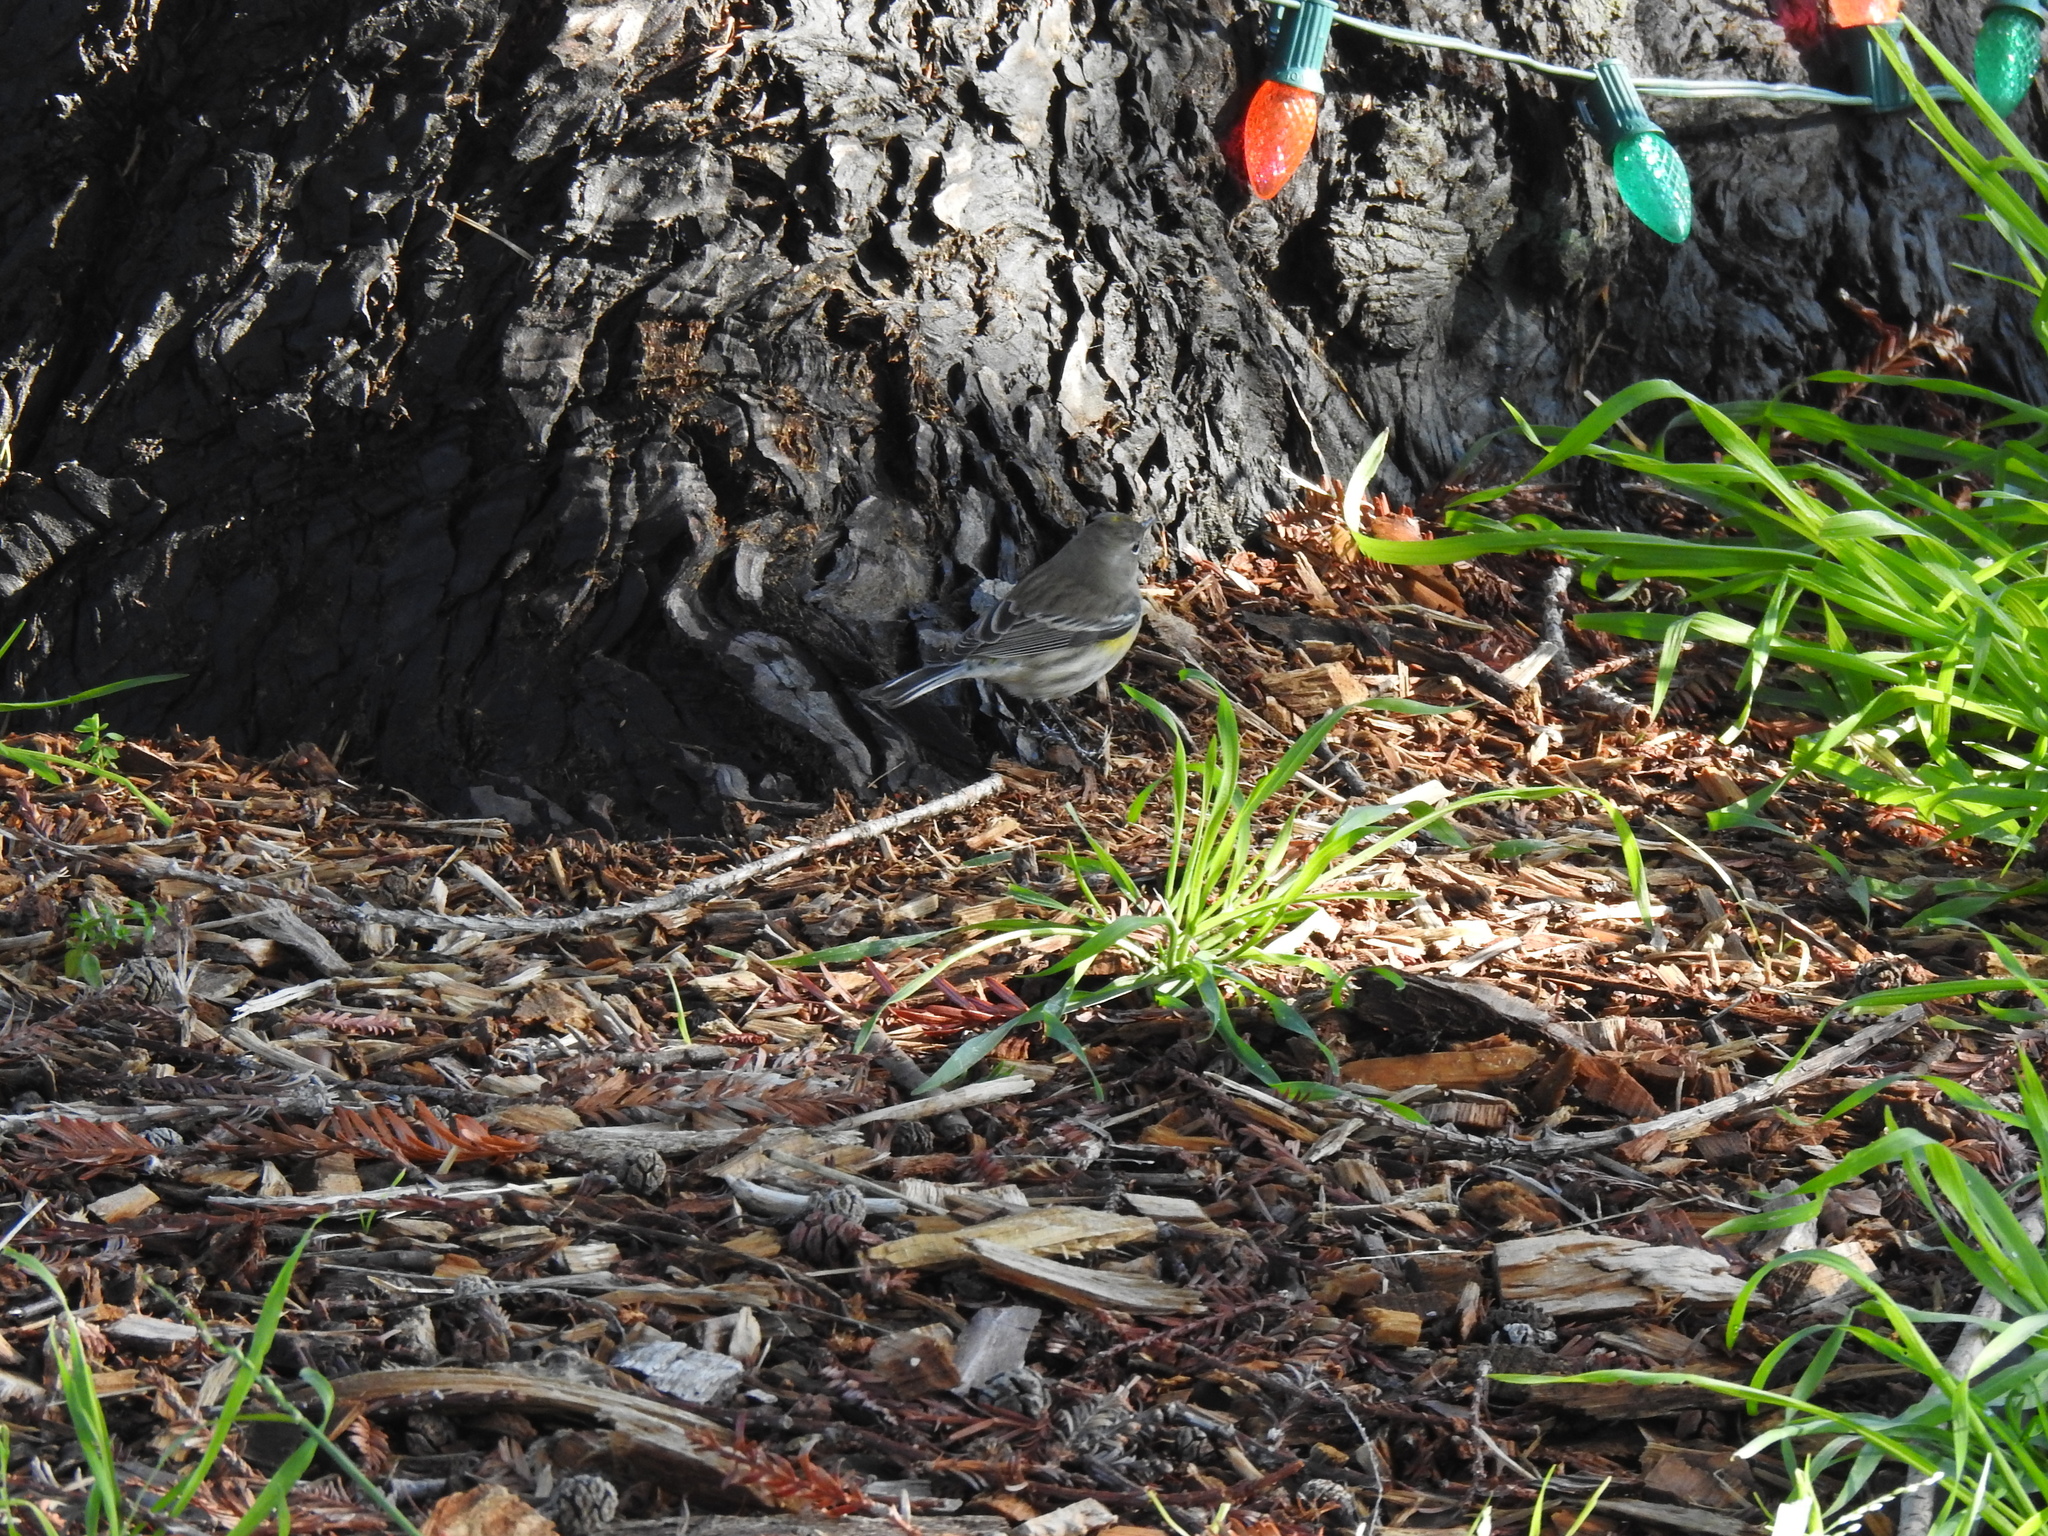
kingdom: Animalia
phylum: Chordata
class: Aves
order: Passeriformes
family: Parulidae
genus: Setophaga
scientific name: Setophaga coronata
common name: Myrtle warbler
